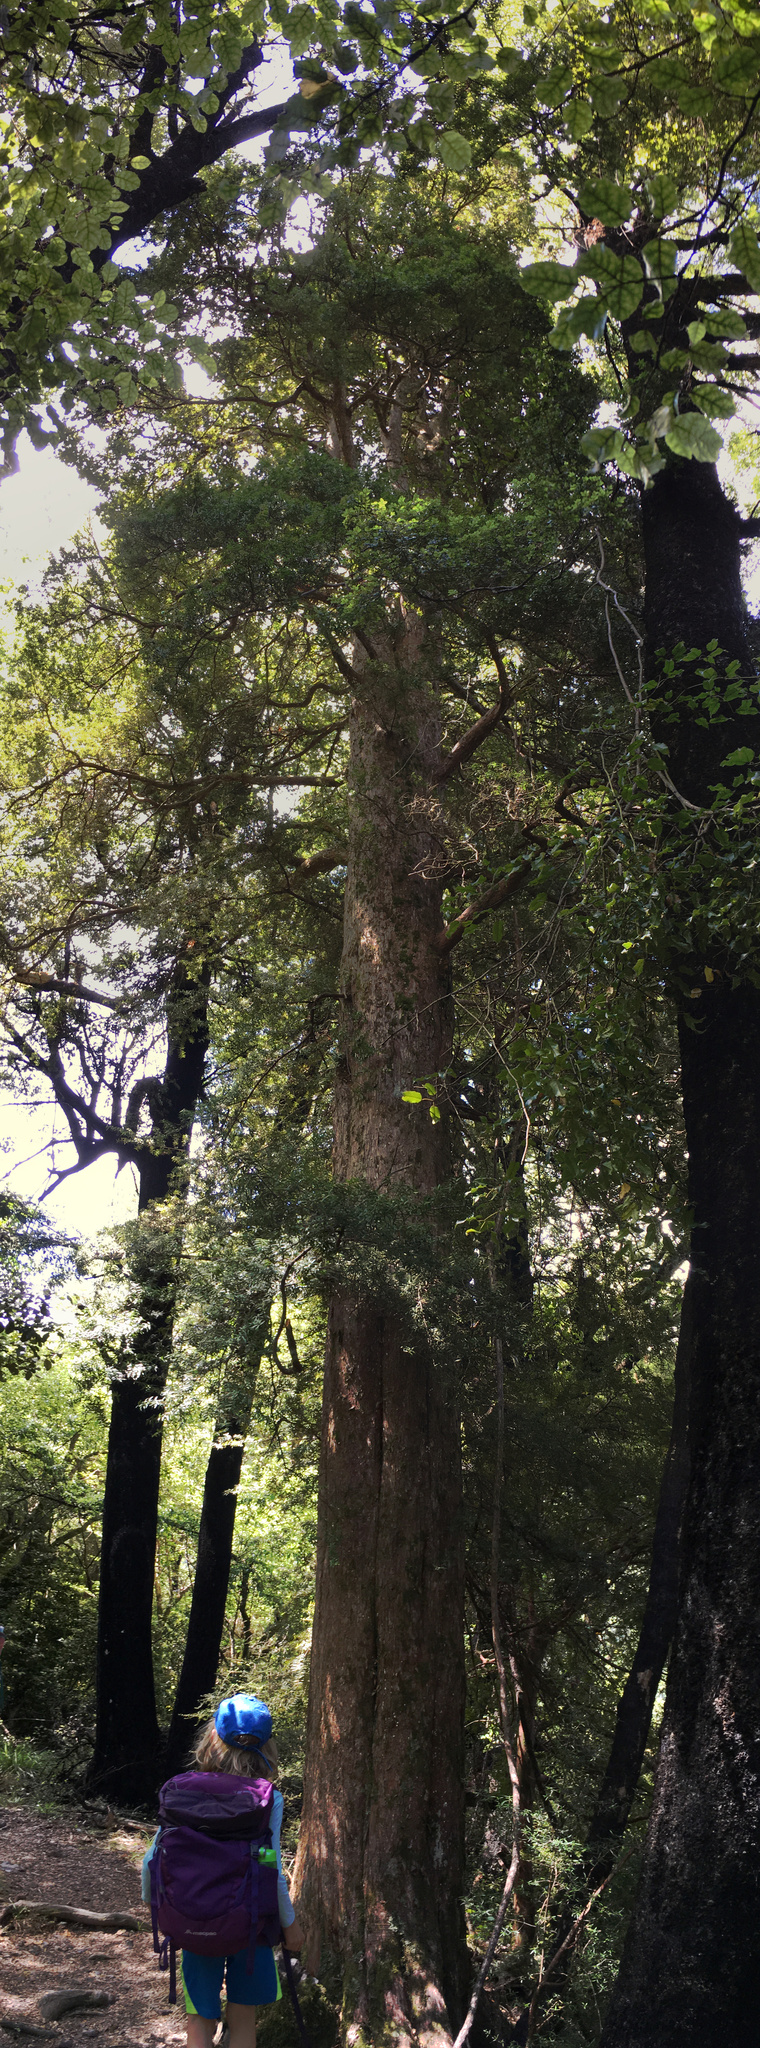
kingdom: Plantae
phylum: Tracheophyta
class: Pinopsida
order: Pinales
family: Podocarpaceae
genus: Podocarpus
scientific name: Podocarpus laetus
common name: Hall's totara
